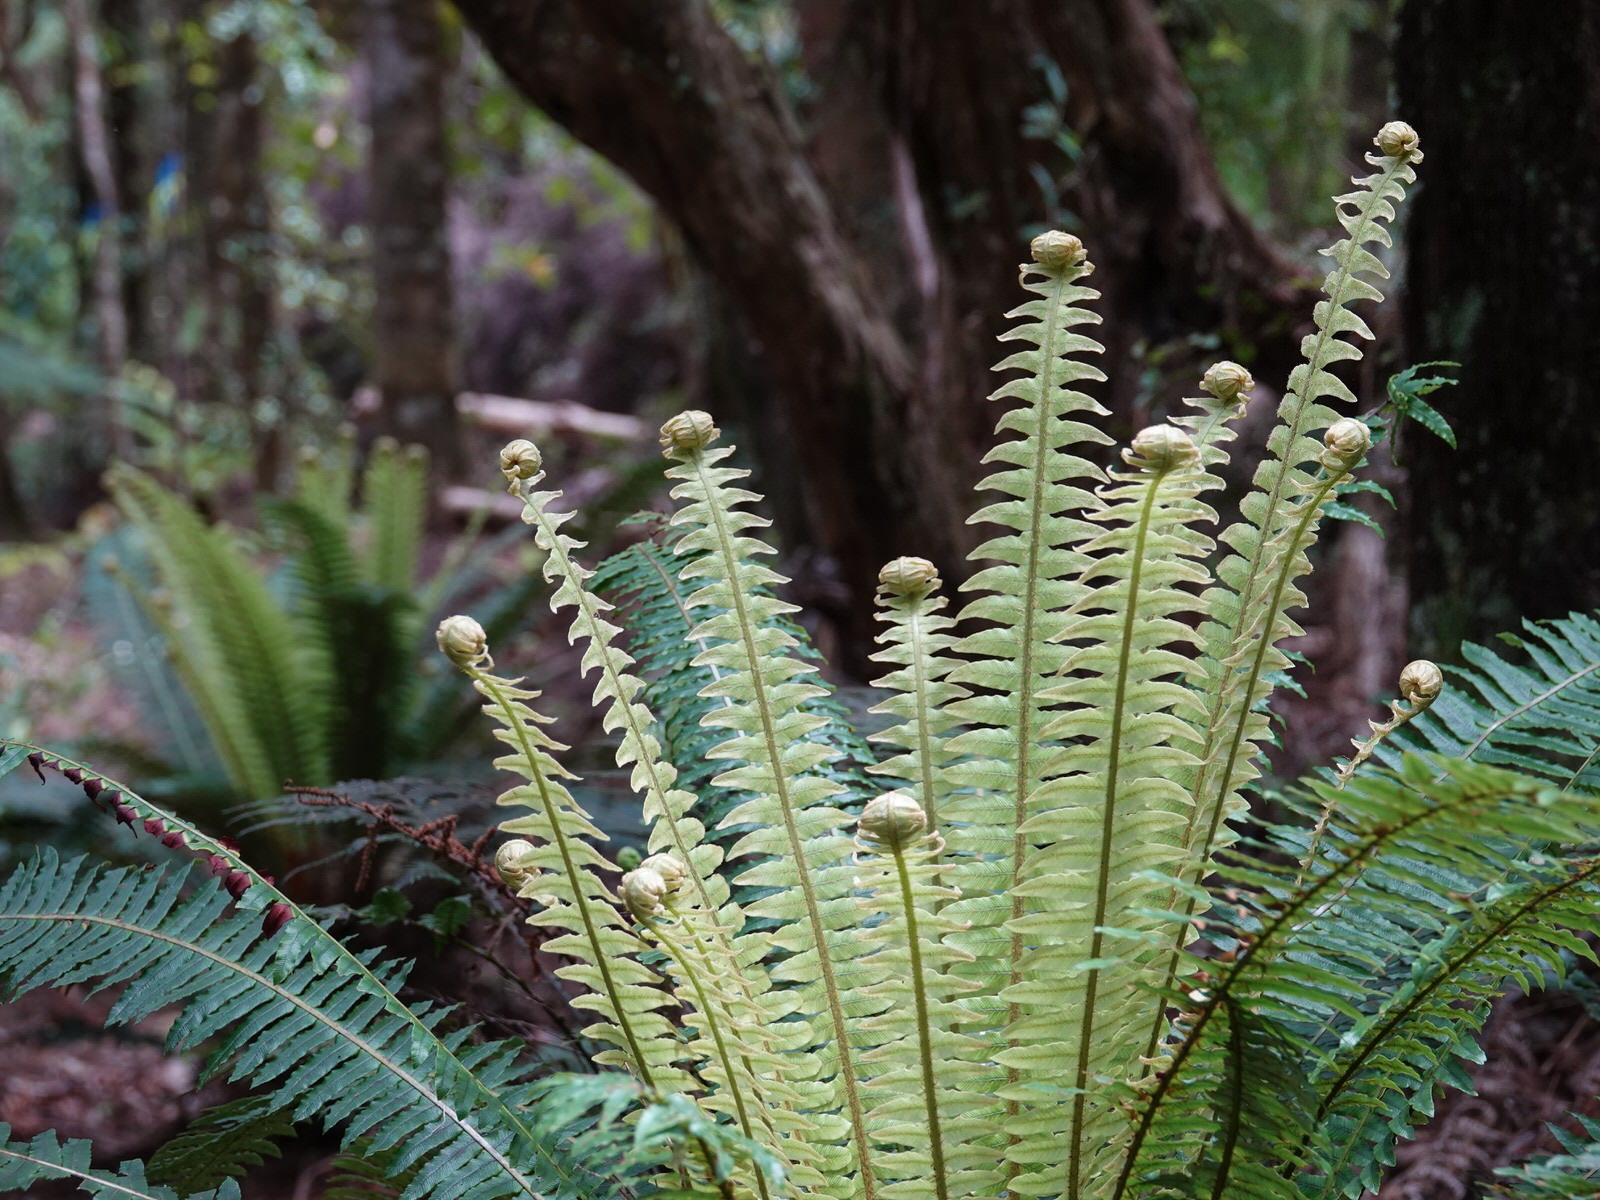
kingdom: Plantae
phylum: Tracheophyta
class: Polypodiopsida
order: Polypodiales
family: Blechnaceae
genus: Lomaria
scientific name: Lomaria discolor
